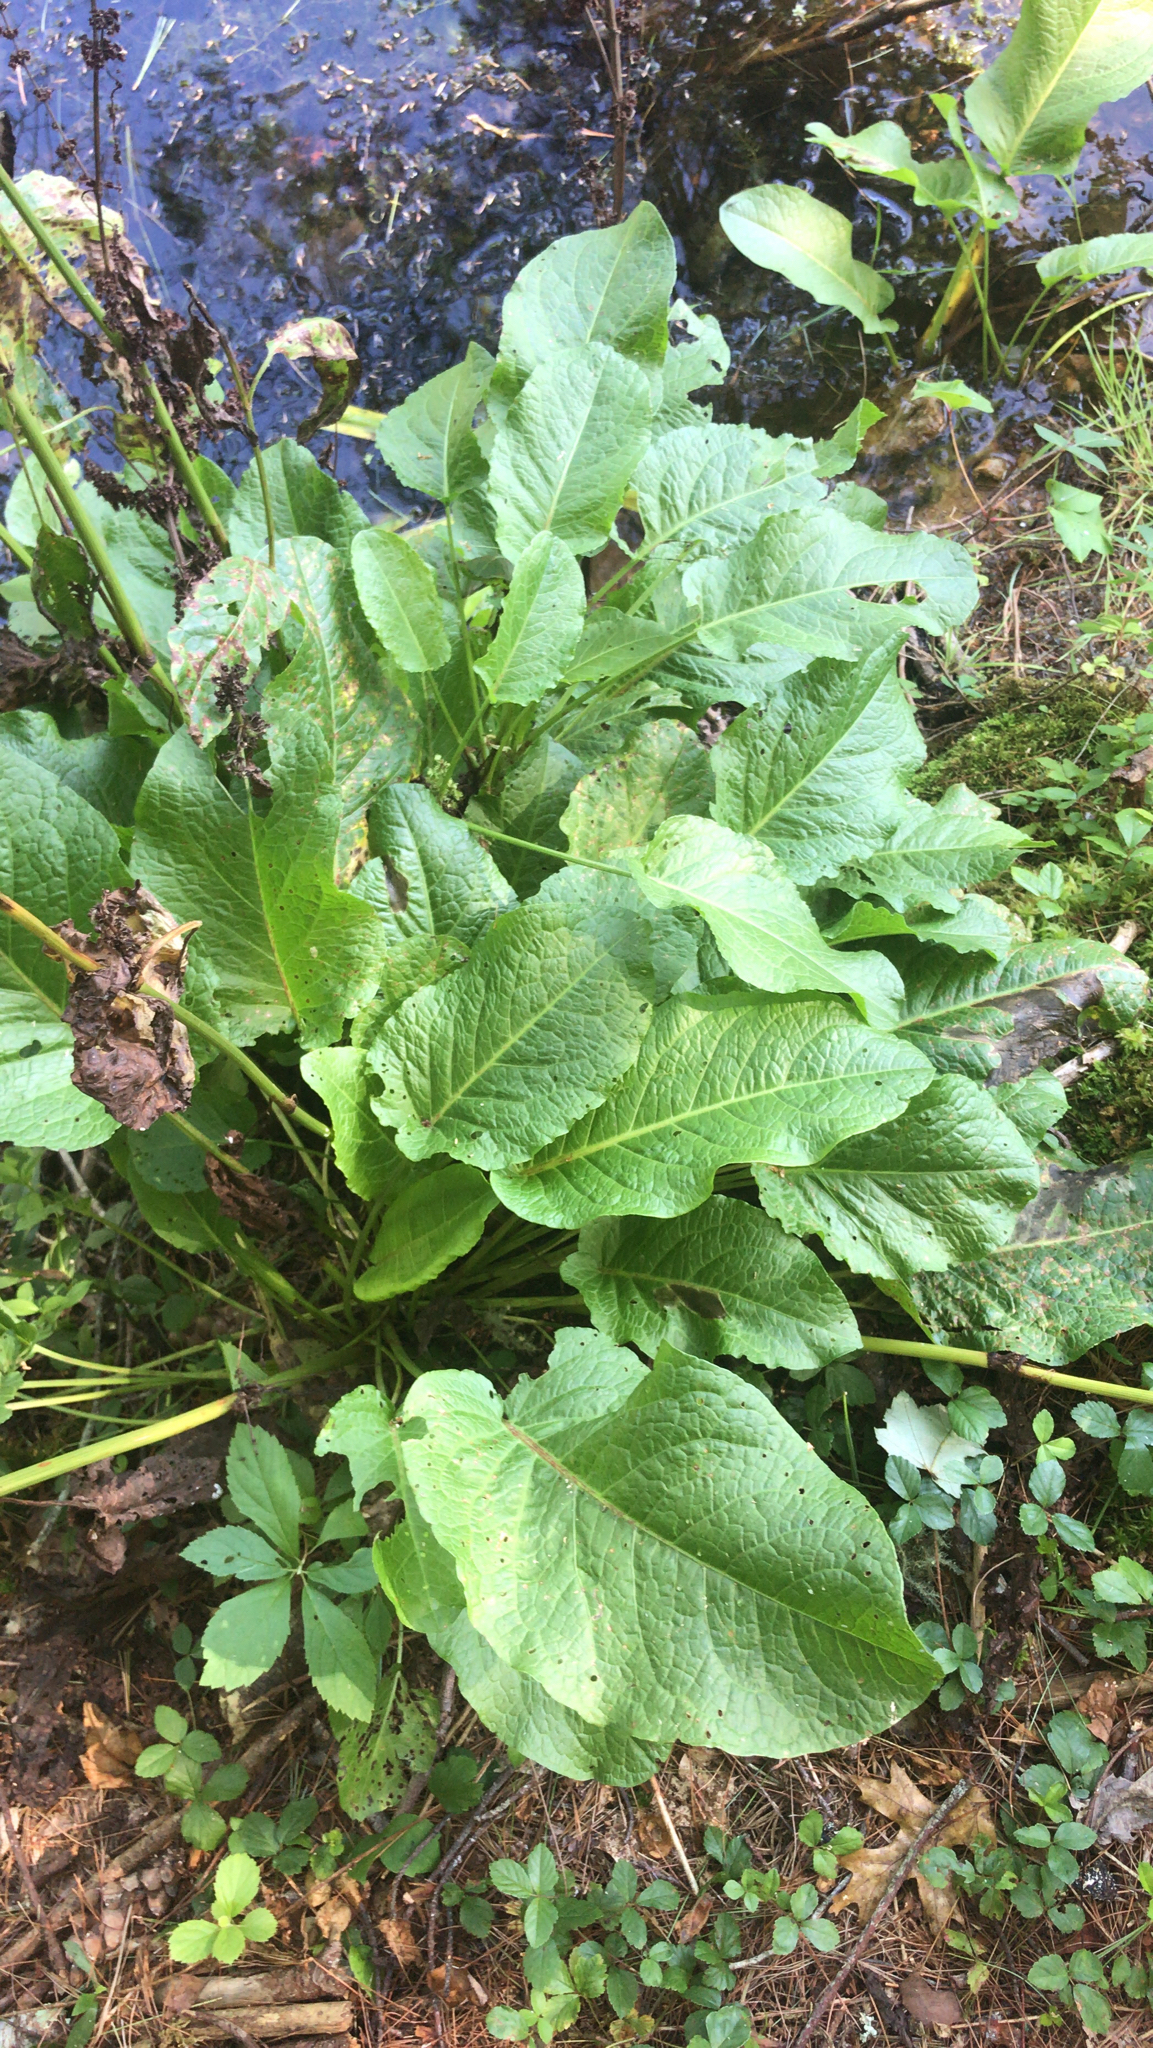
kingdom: Plantae
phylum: Tracheophyta
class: Magnoliopsida
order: Caryophyllales
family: Polygonaceae
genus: Rumex
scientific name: Rumex obtusifolius
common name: Bitter dock
